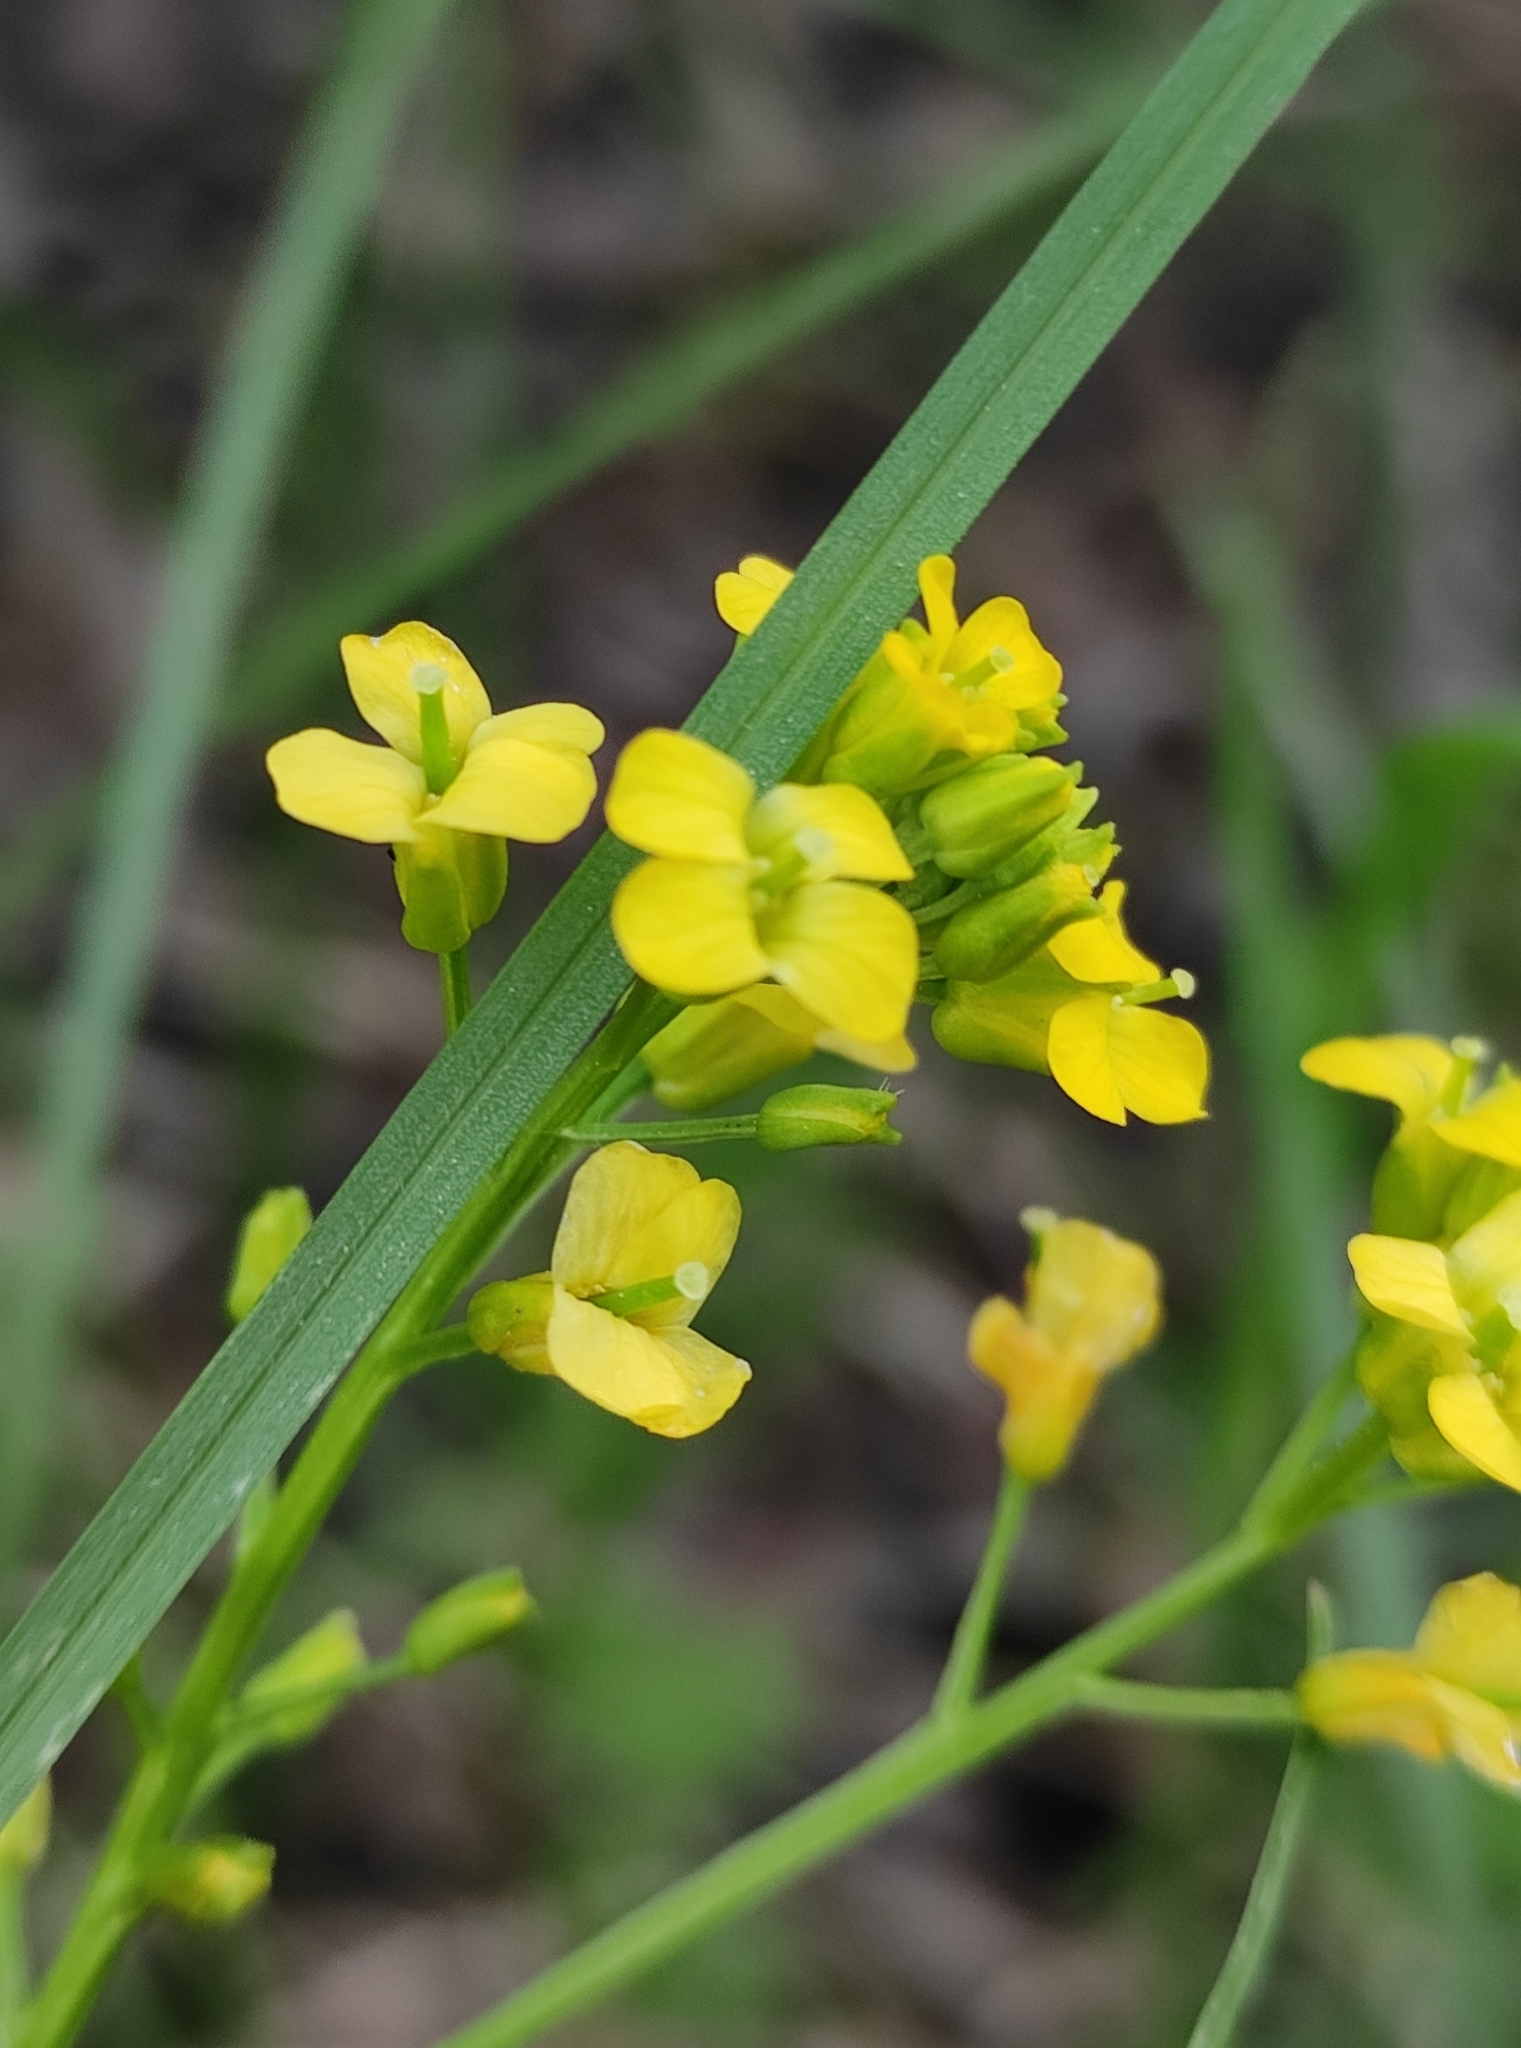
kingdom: Plantae
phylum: Tracheophyta
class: Magnoliopsida
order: Brassicales
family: Brassicaceae
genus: Barbarea
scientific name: Barbarea vulgaris
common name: Cressy-greens
